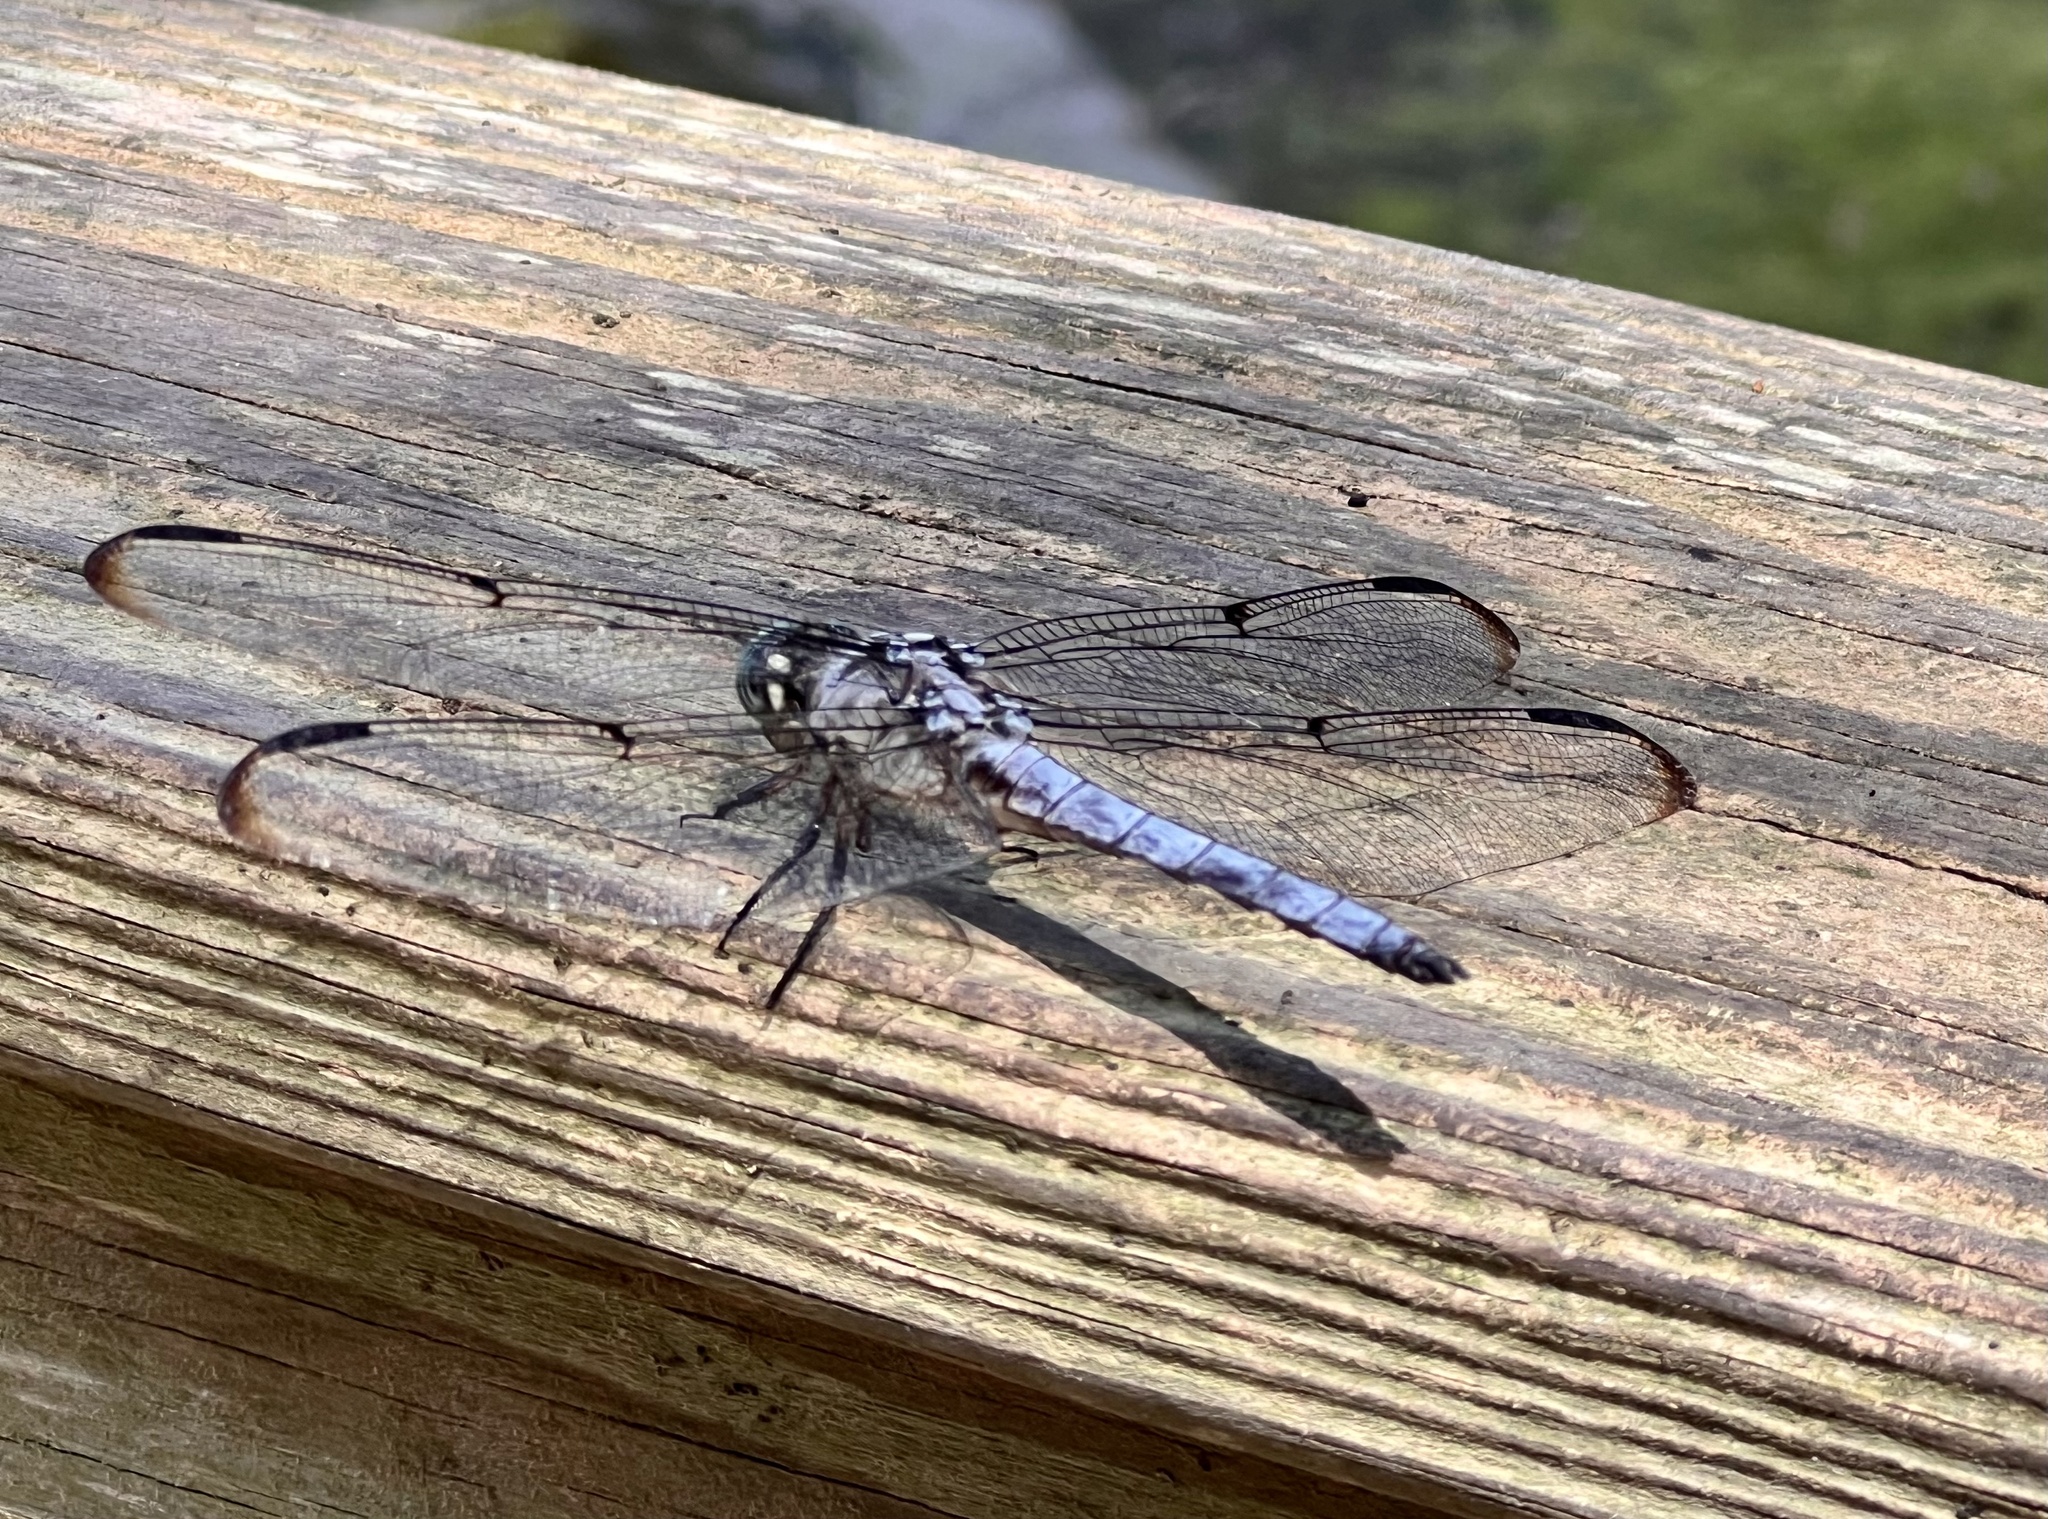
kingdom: Animalia
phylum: Arthropoda
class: Insecta
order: Odonata
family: Libellulidae
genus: Libellula
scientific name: Libellula vibrans
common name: Great blue skimmer
